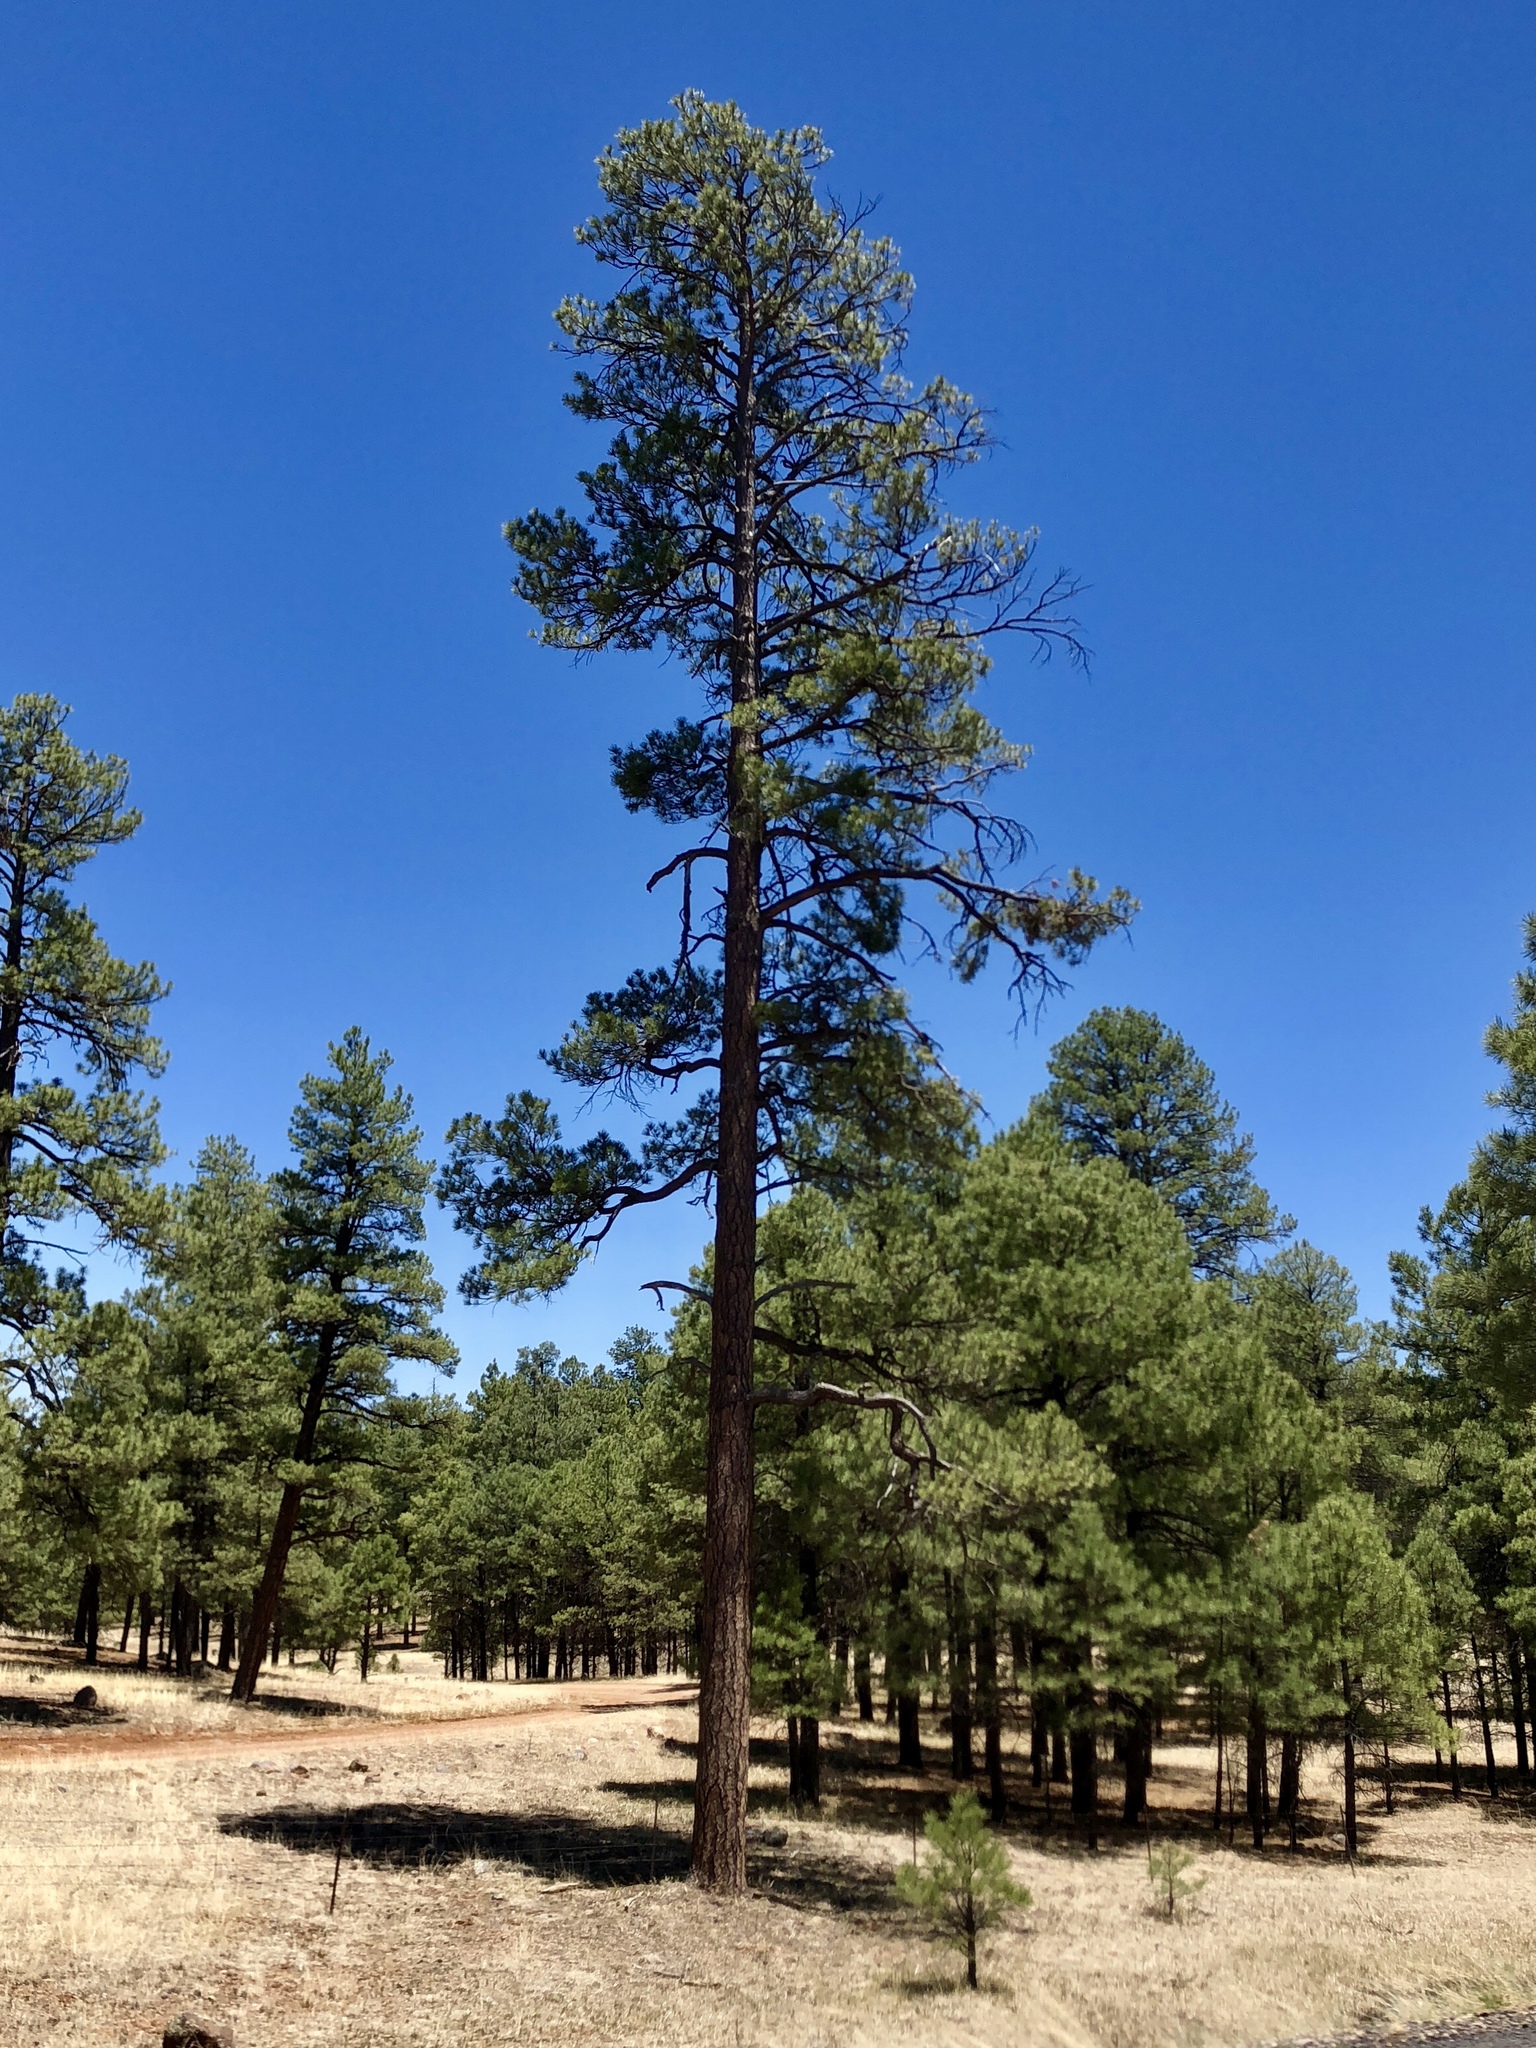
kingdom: Plantae
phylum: Tracheophyta
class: Pinopsida
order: Pinales
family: Pinaceae
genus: Pinus
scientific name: Pinus ponderosa
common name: Western yellow-pine
